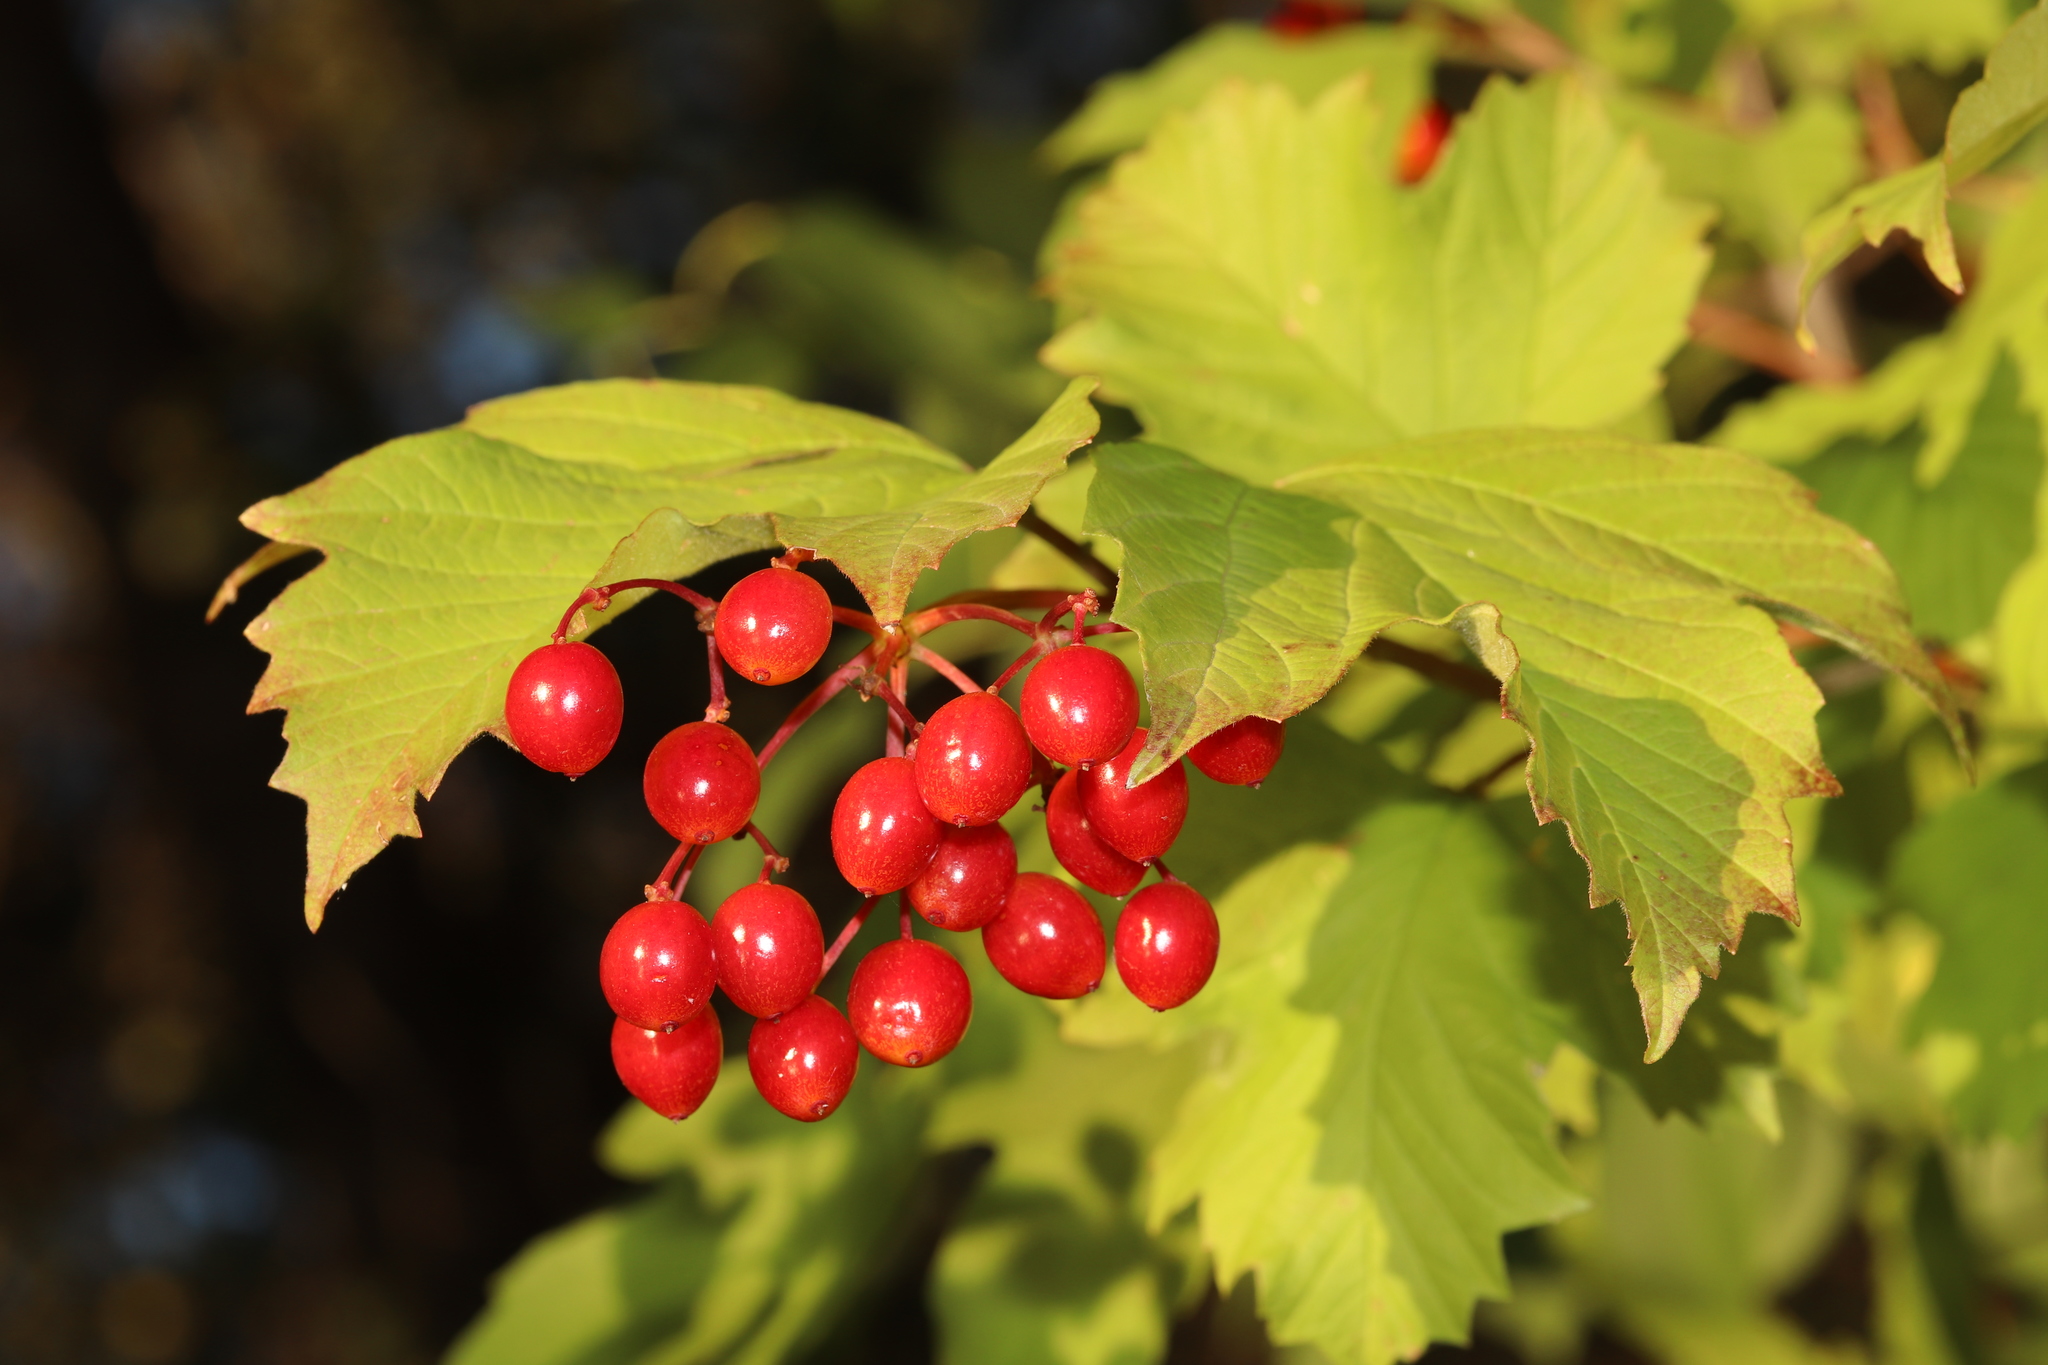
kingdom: Plantae
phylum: Tracheophyta
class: Magnoliopsida
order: Dipsacales
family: Viburnaceae
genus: Viburnum
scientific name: Viburnum opulus
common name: Guelder-rose
